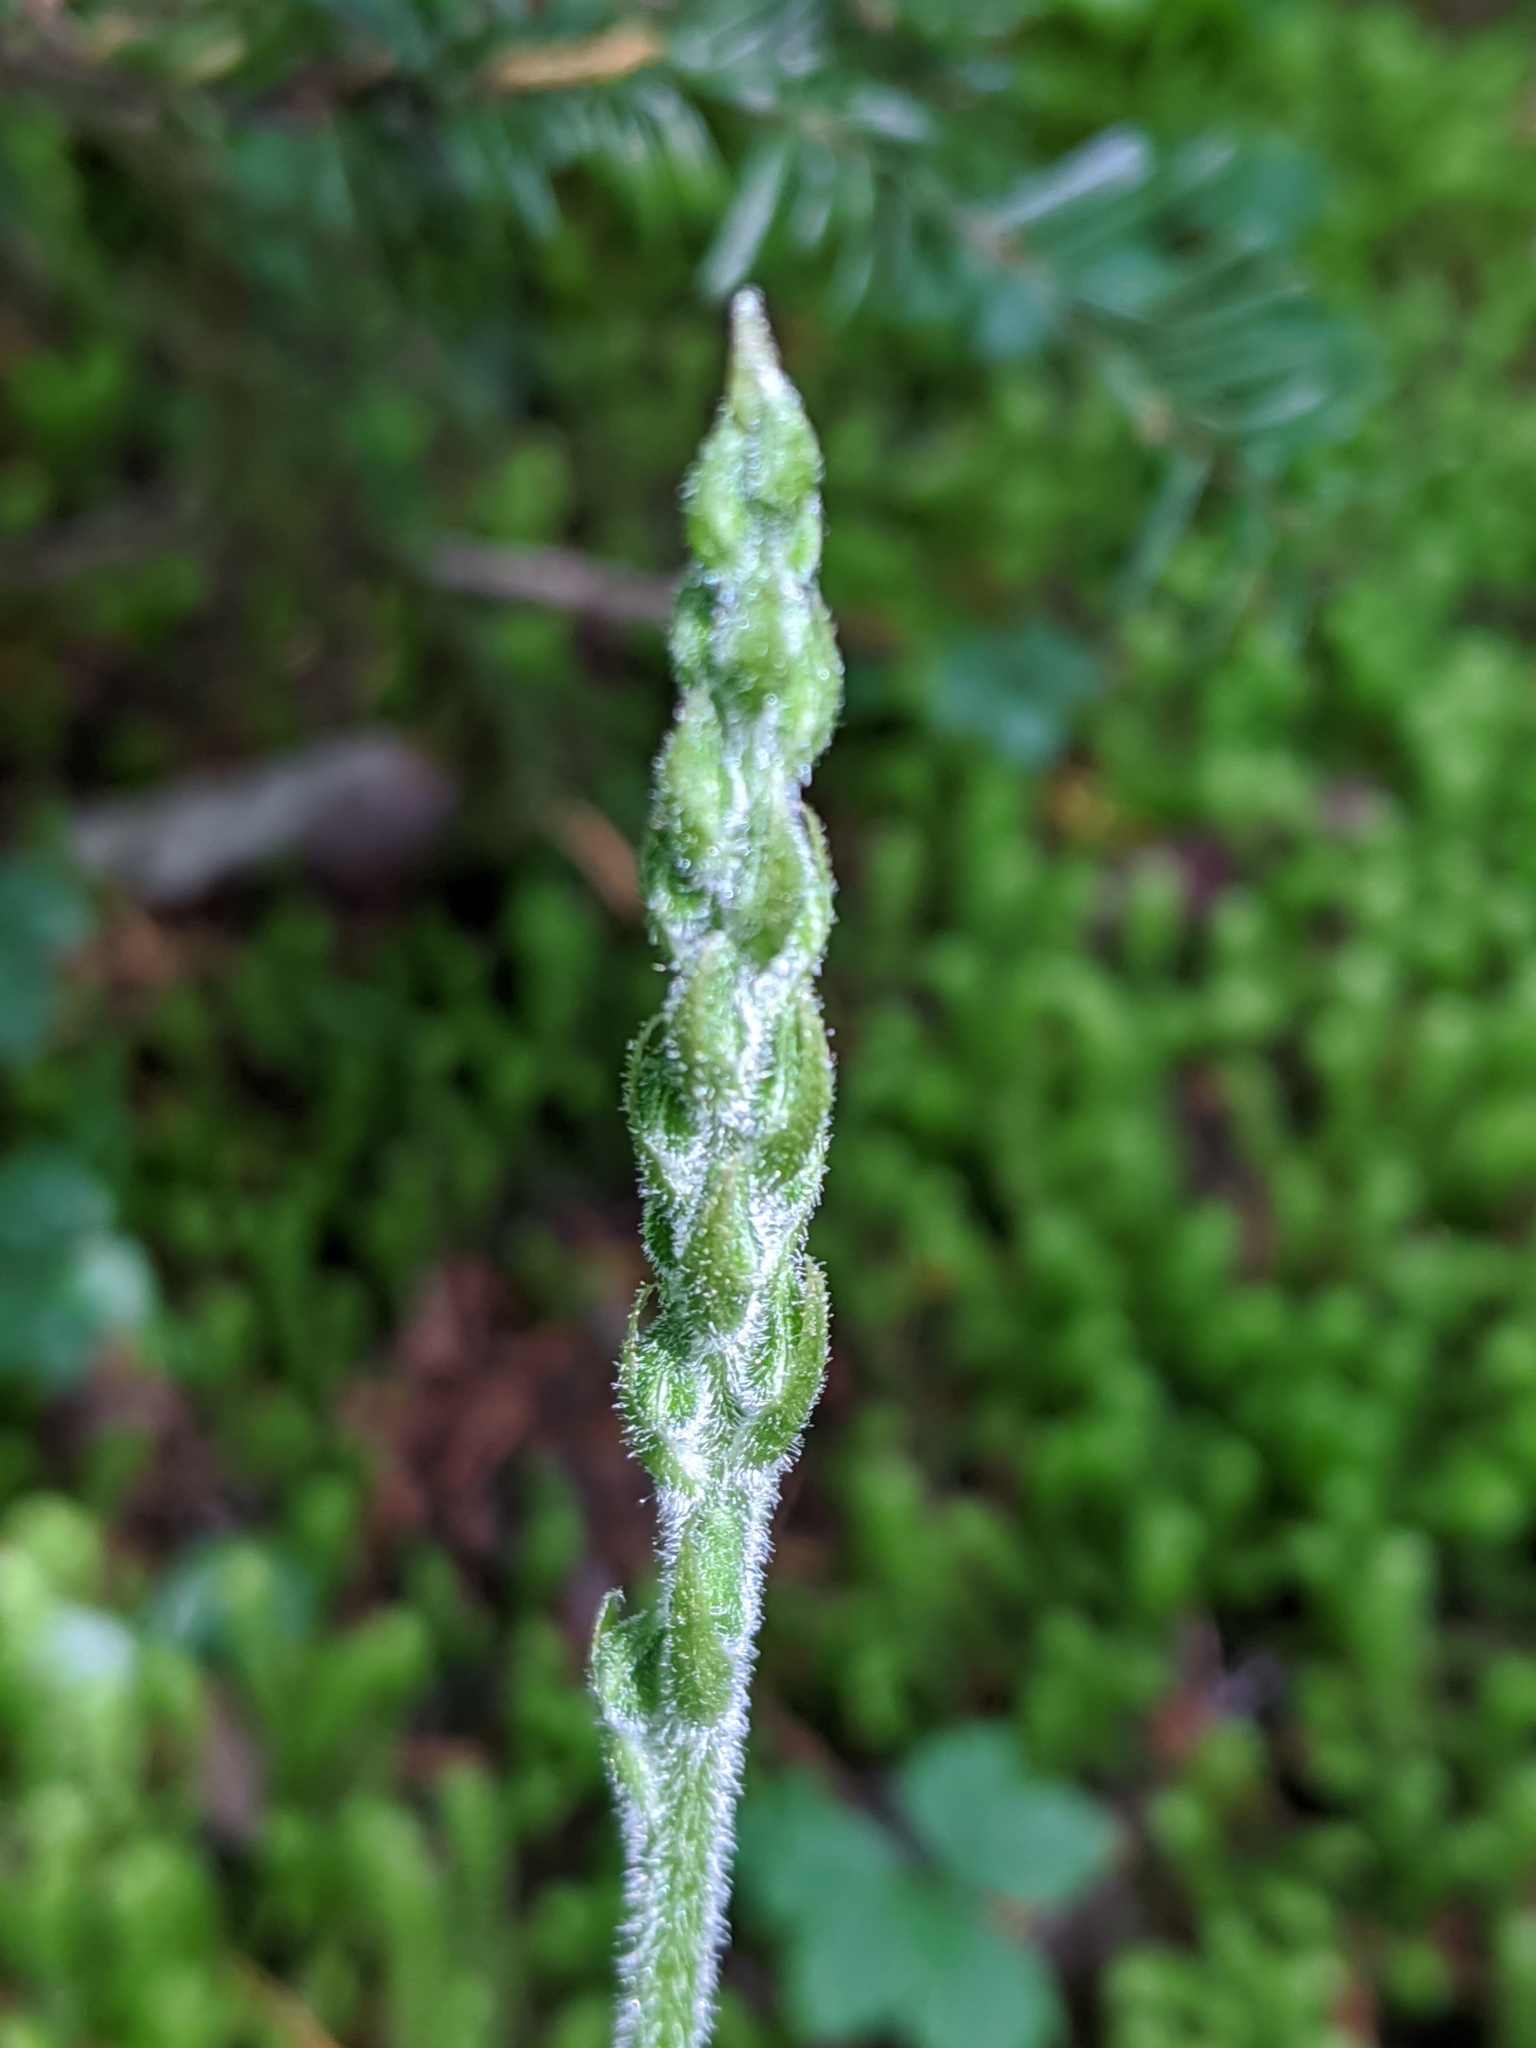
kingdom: Plantae
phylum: Tracheophyta
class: Liliopsida
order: Asparagales
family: Orchidaceae
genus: Goodyera
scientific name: Goodyera oblongifolia
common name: Giant rattlesnake-plantain
